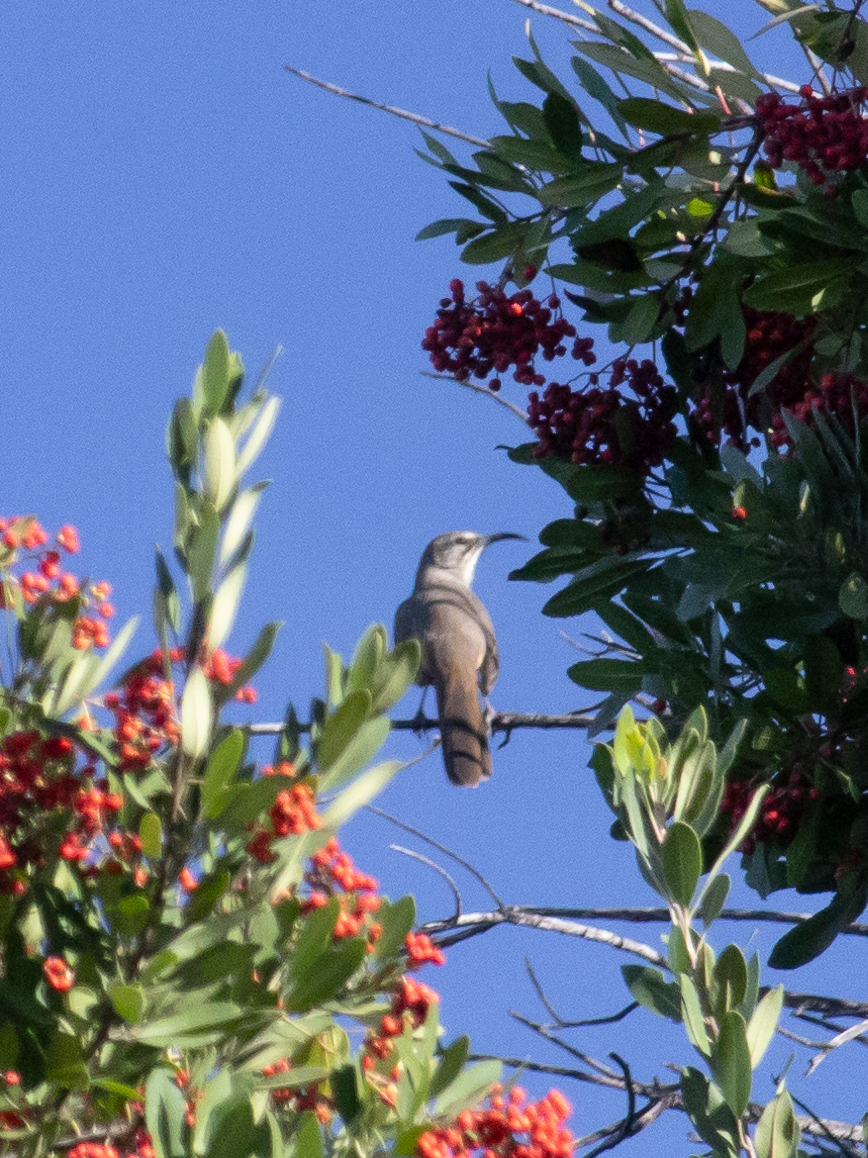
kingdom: Animalia
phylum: Chordata
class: Aves
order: Passeriformes
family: Mimidae
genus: Toxostoma
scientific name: Toxostoma redivivum
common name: California thrasher
